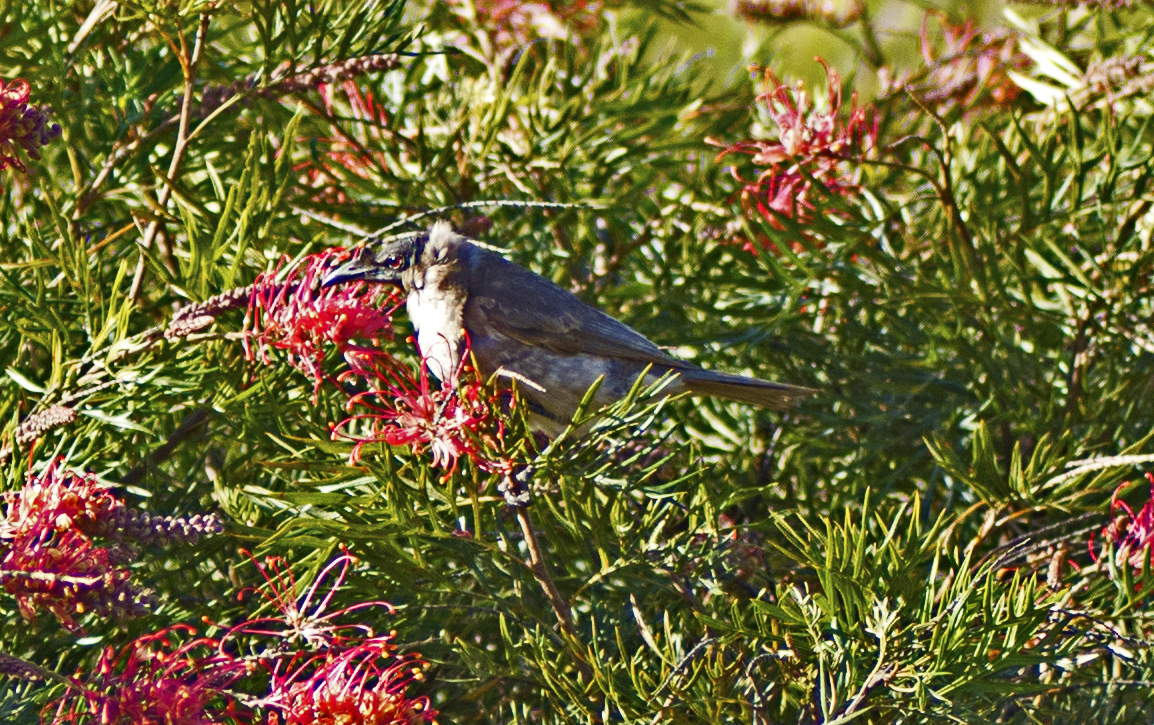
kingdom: Animalia
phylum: Chordata
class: Aves
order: Passeriformes
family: Meliphagidae
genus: Philemon
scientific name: Philemon corniculatus
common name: Noisy friarbird
